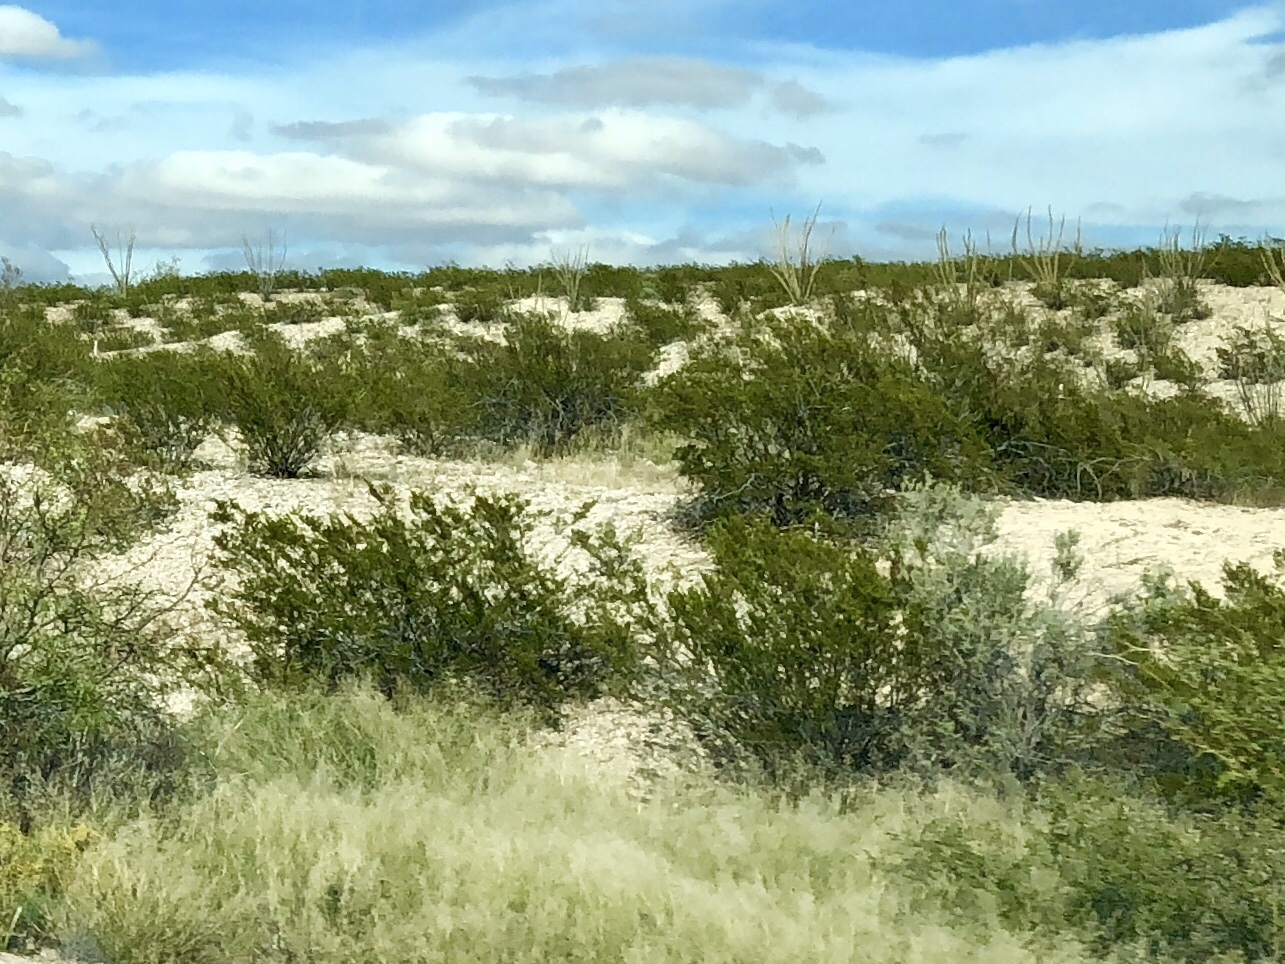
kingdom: Plantae
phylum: Tracheophyta
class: Magnoliopsida
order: Zygophyllales
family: Zygophyllaceae
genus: Larrea
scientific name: Larrea tridentata
